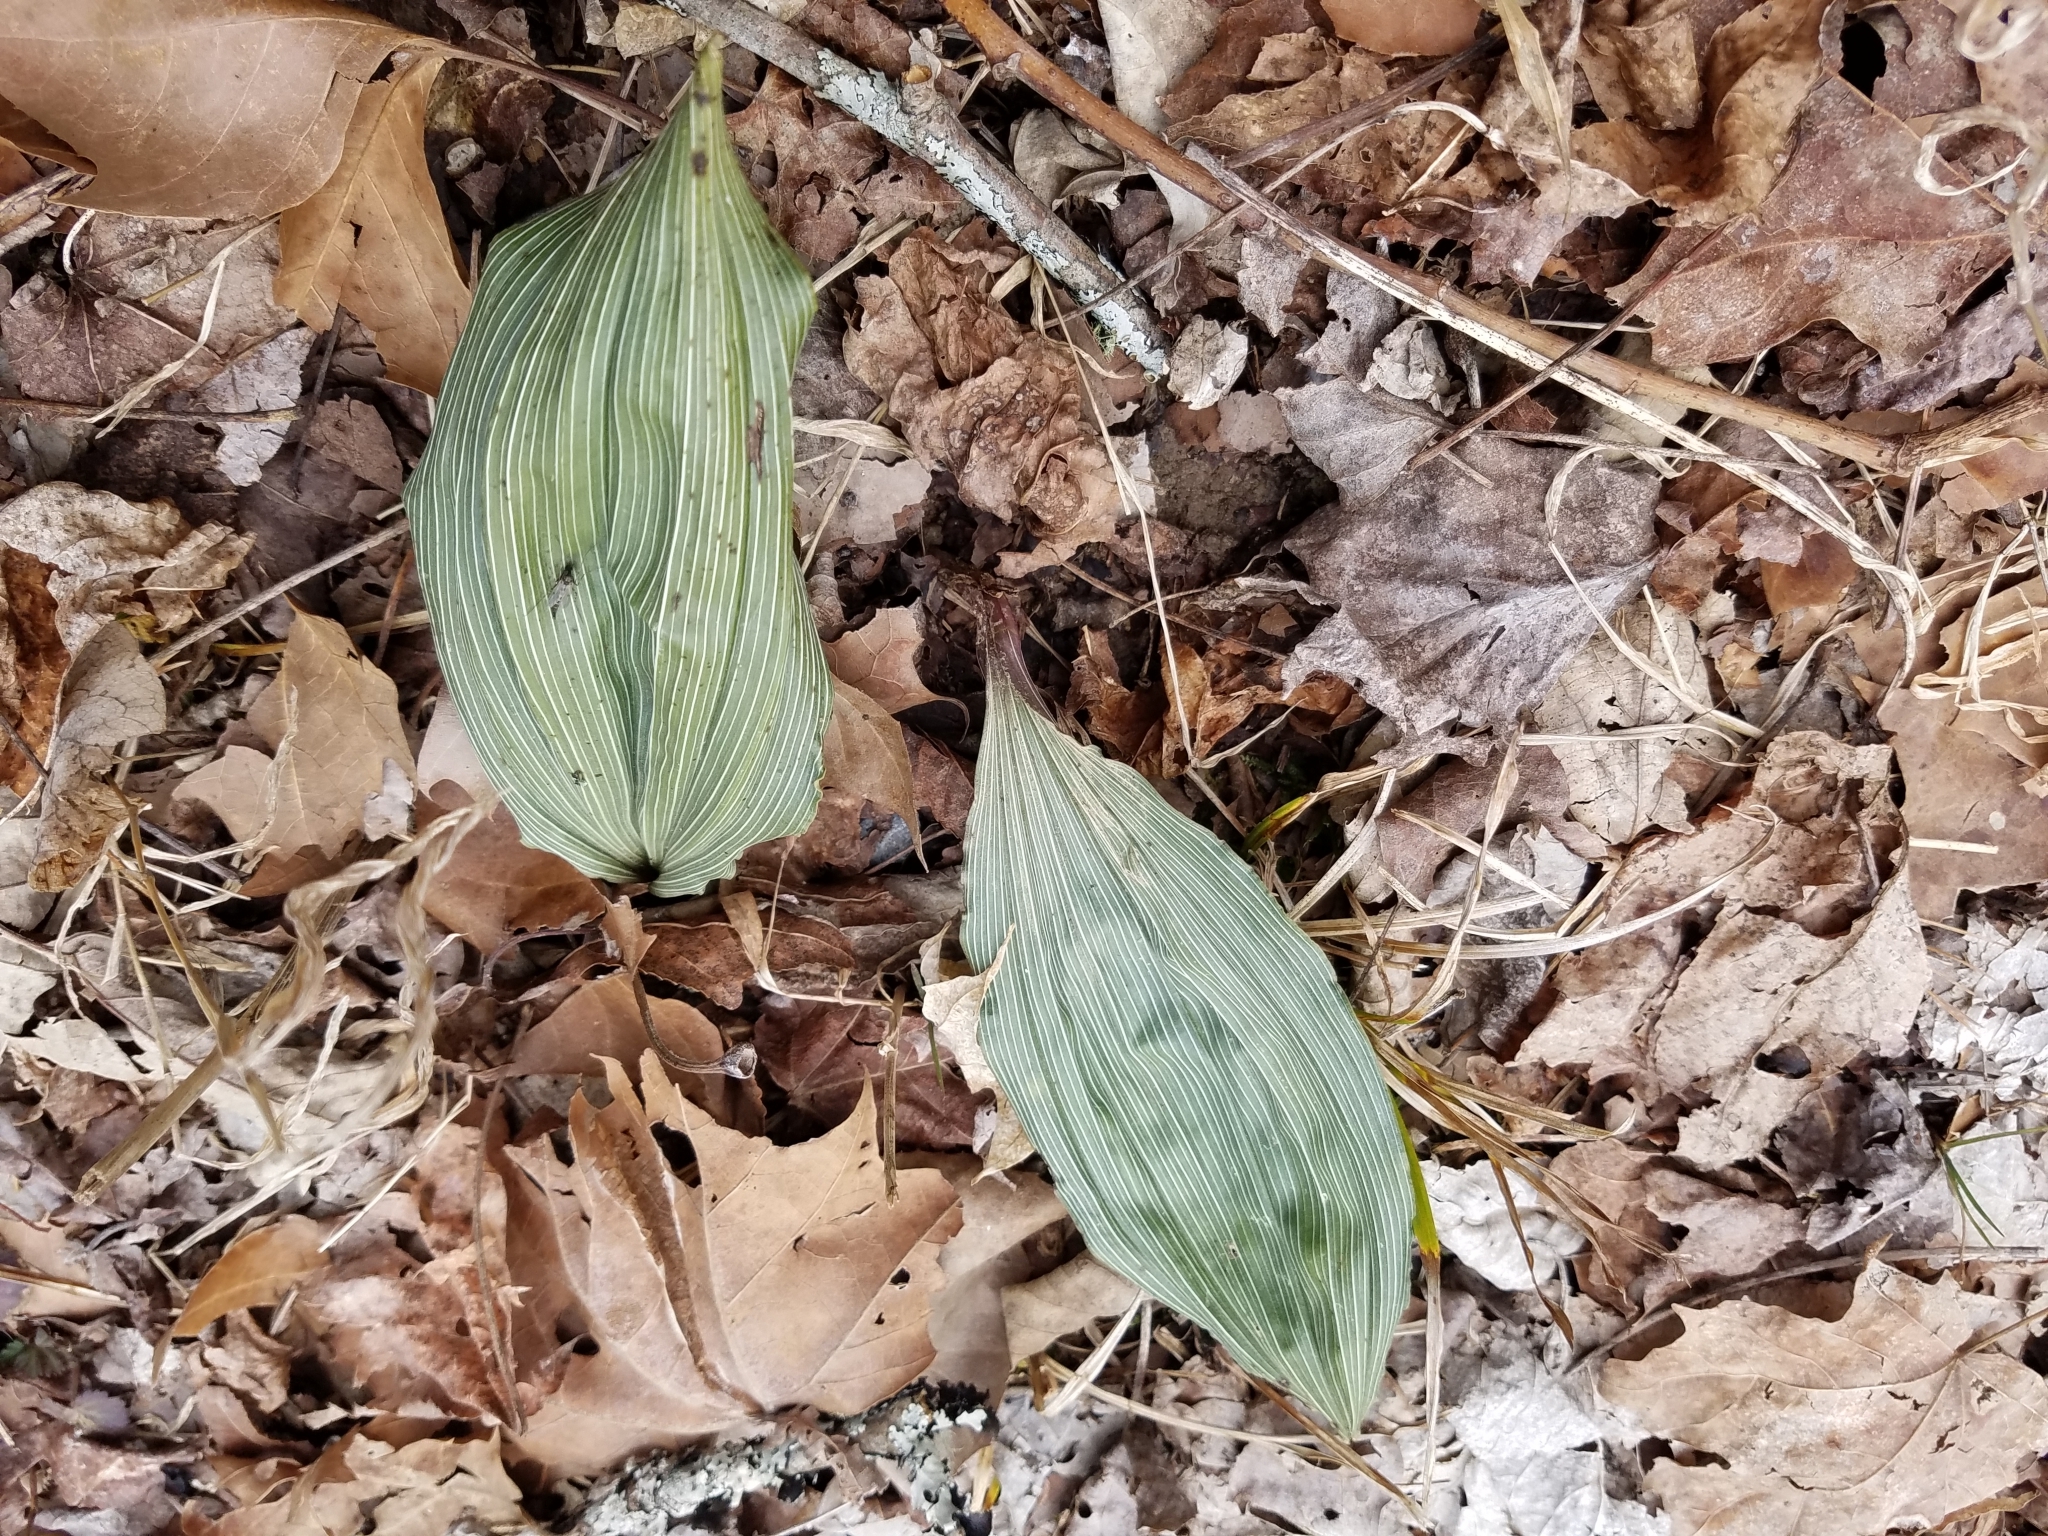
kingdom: Plantae
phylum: Tracheophyta
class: Liliopsida
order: Asparagales
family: Orchidaceae
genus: Aplectrum
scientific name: Aplectrum hyemale
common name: Adam-and-eve
